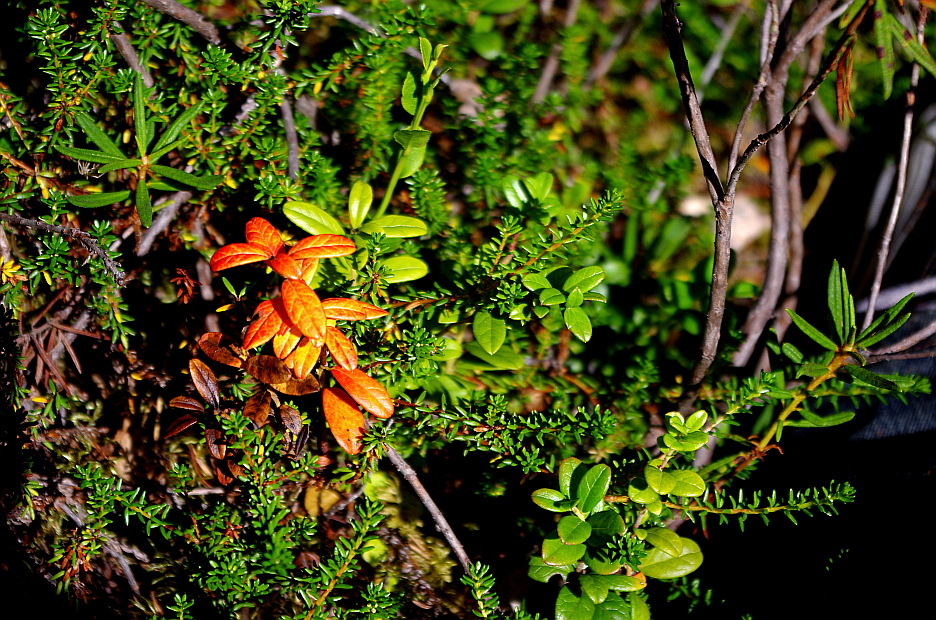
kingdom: Plantae
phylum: Tracheophyta
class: Magnoliopsida
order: Ericales
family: Ericaceae
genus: Vaccinium
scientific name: Vaccinium vitis-idaea
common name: Cowberry
